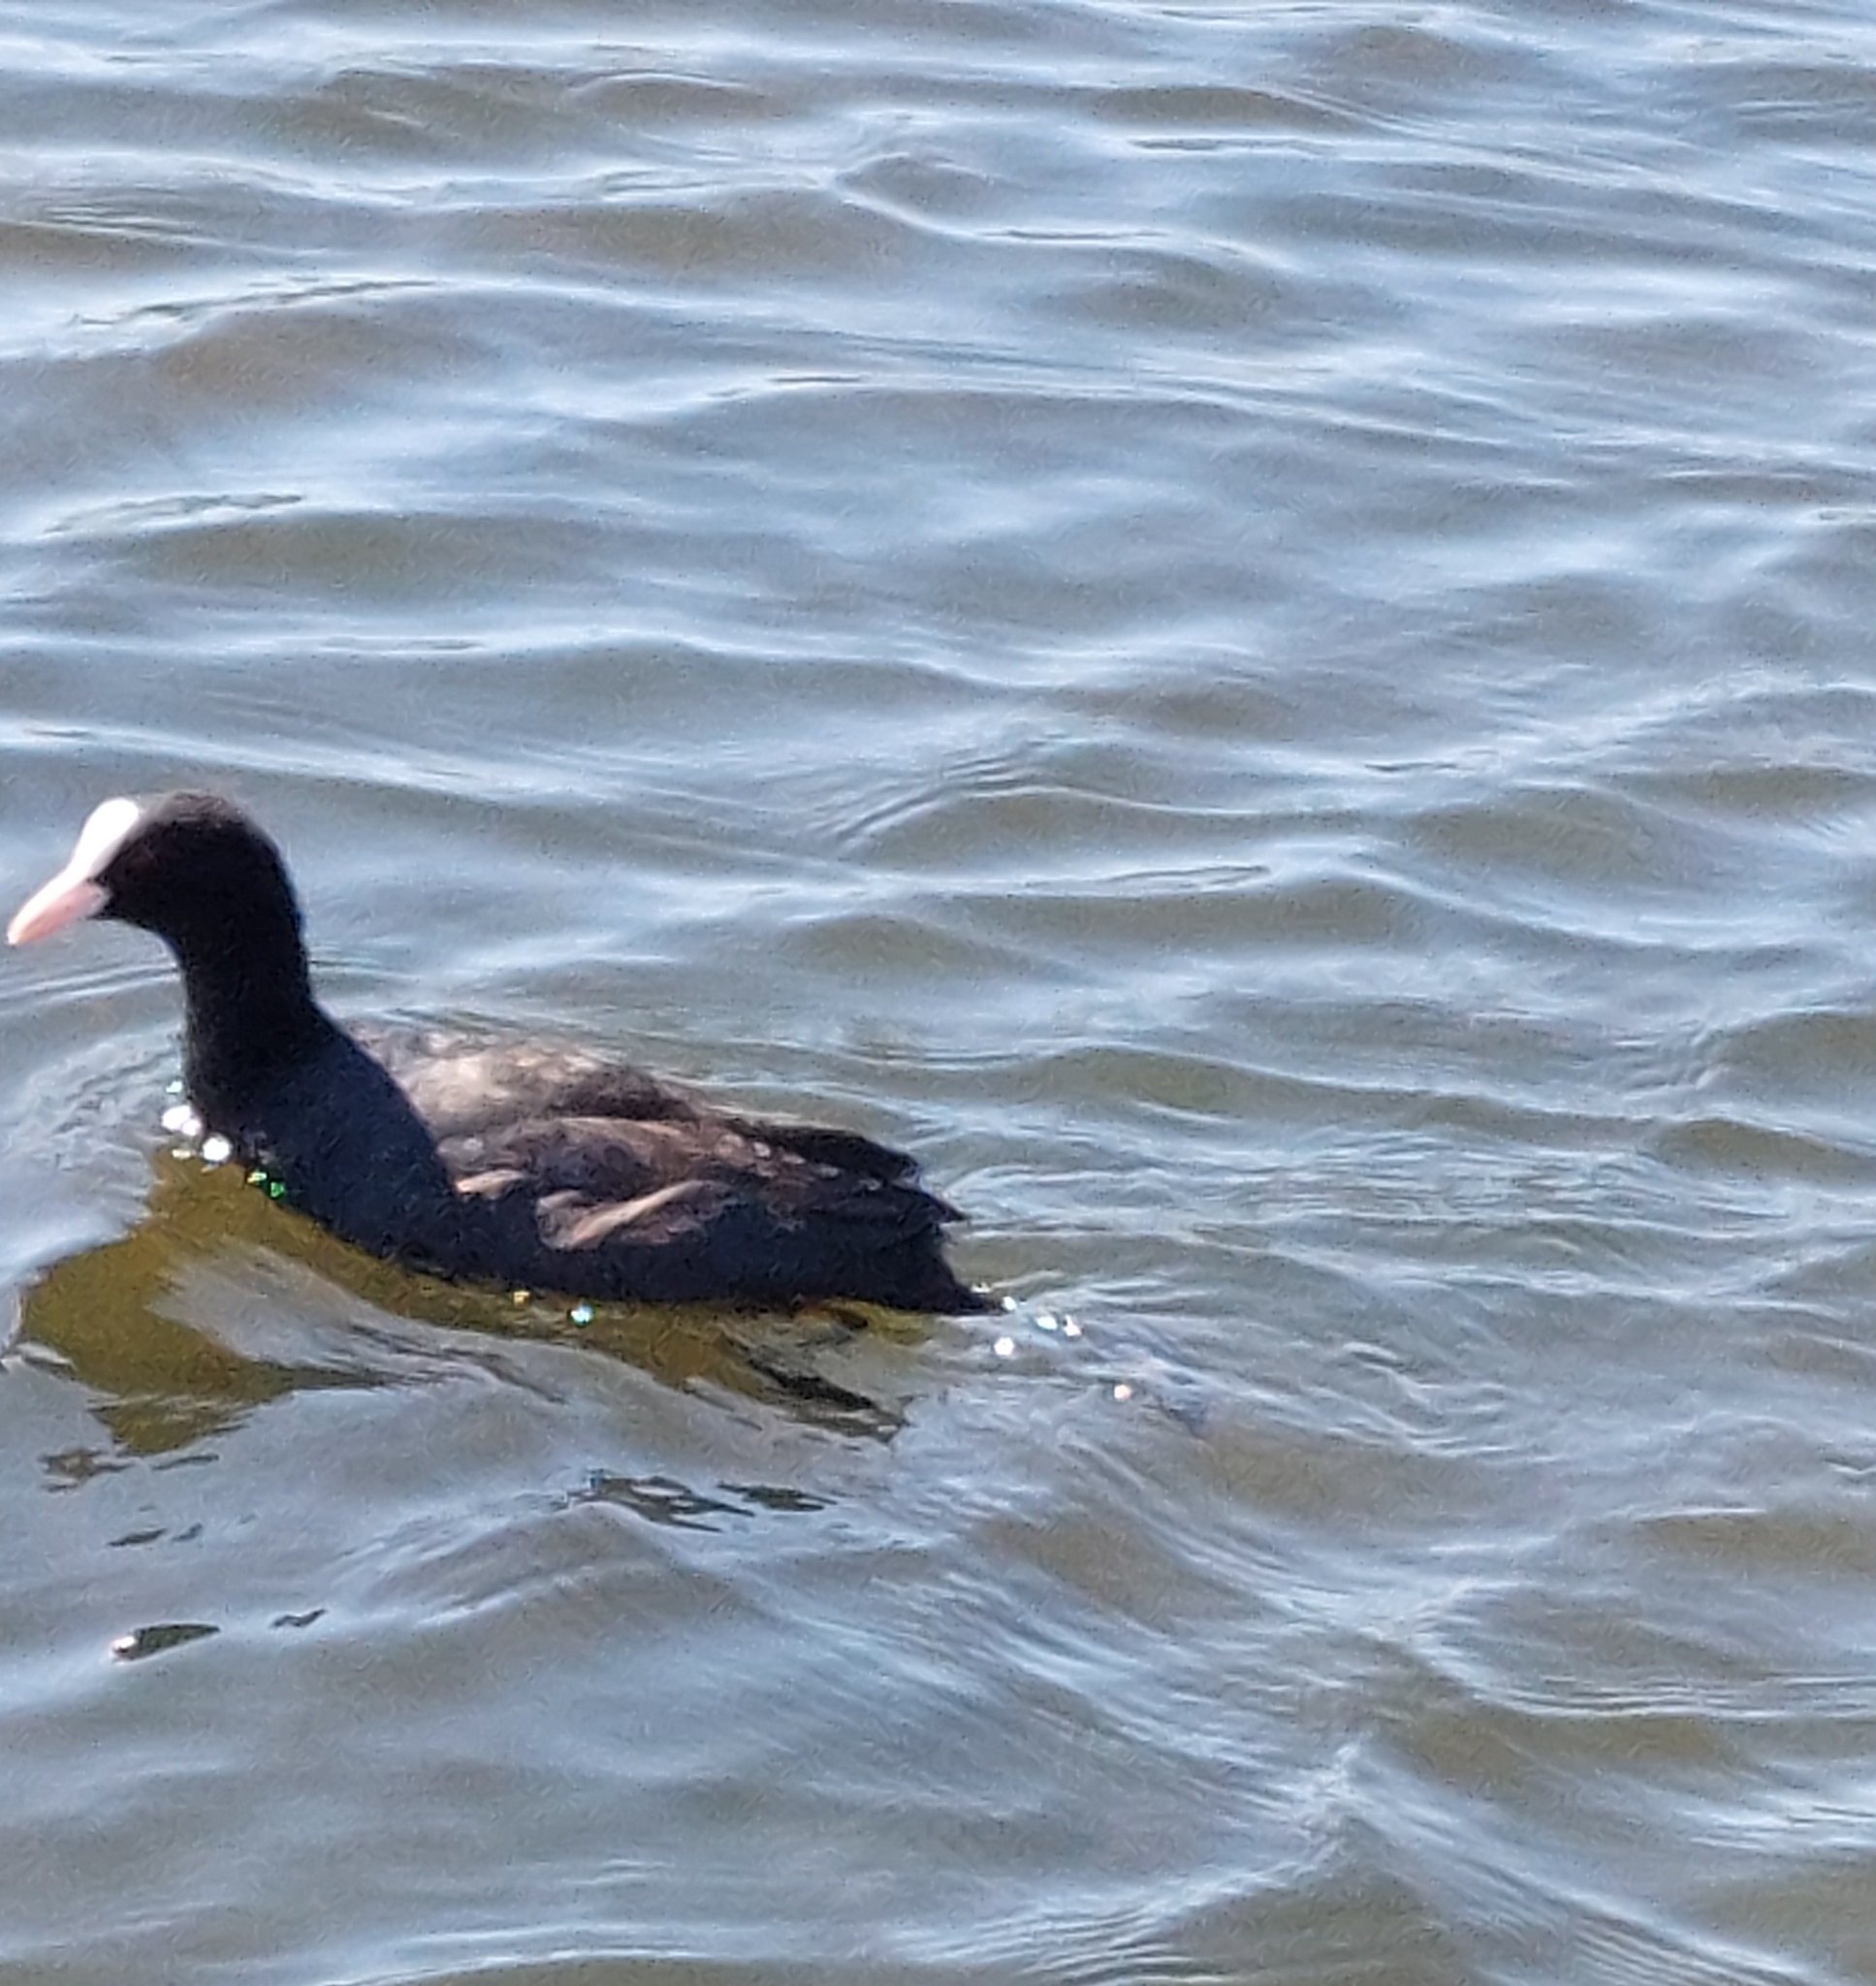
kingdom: Animalia
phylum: Chordata
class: Aves
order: Gruiformes
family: Rallidae
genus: Fulica
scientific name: Fulica atra
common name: Eurasian coot
